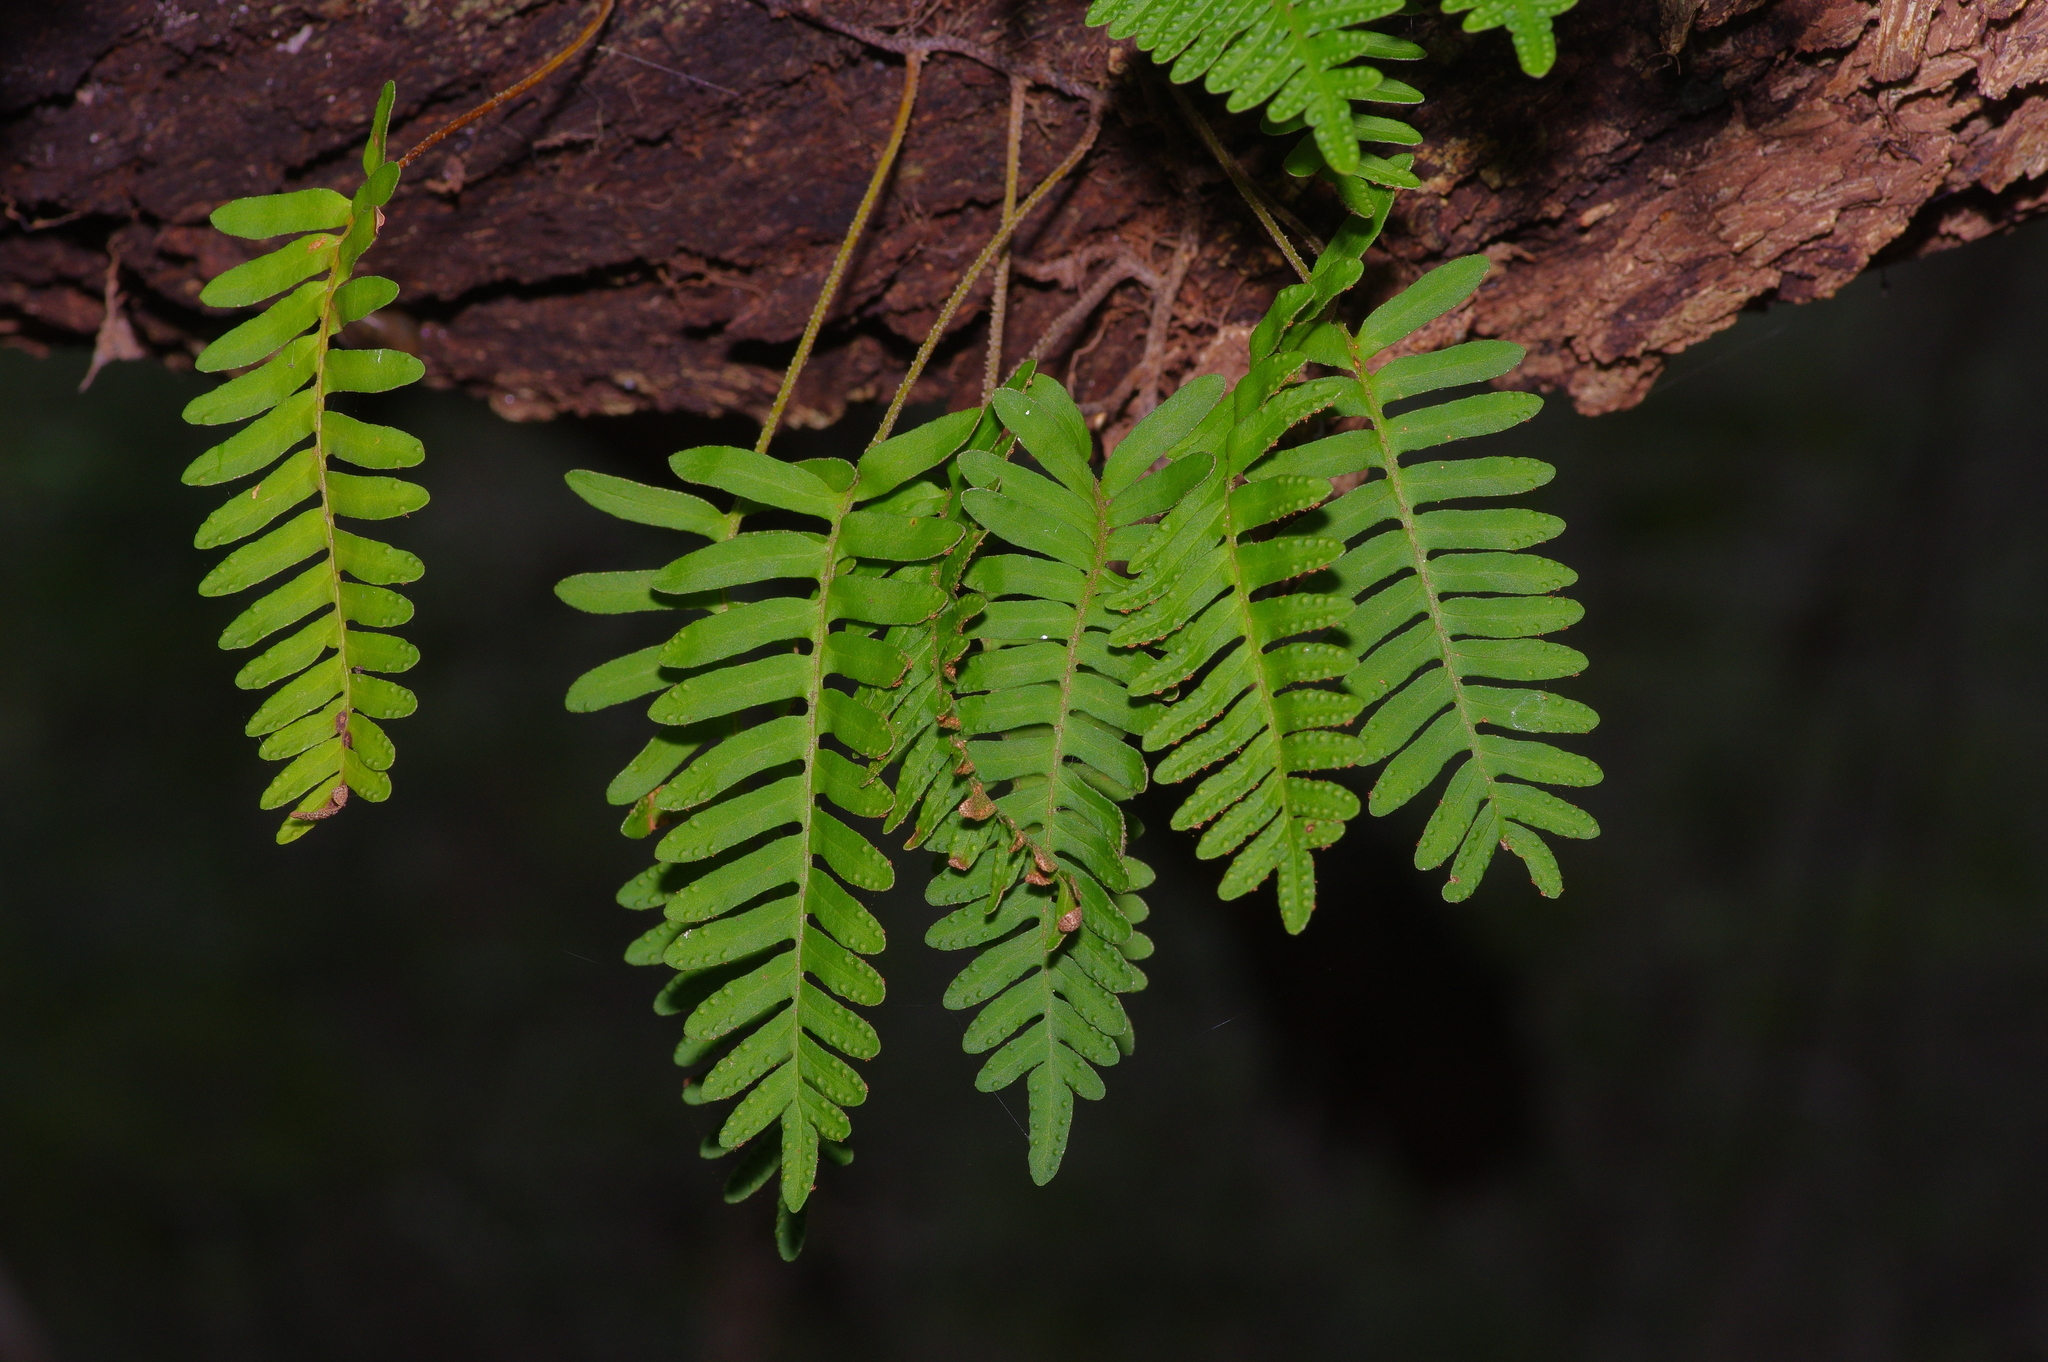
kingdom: Plantae
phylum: Tracheophyta
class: Polypodiopsida
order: Polypodiales
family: Polypodiaceae
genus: Pleopeltis
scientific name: Pleopeltis michauxiana
